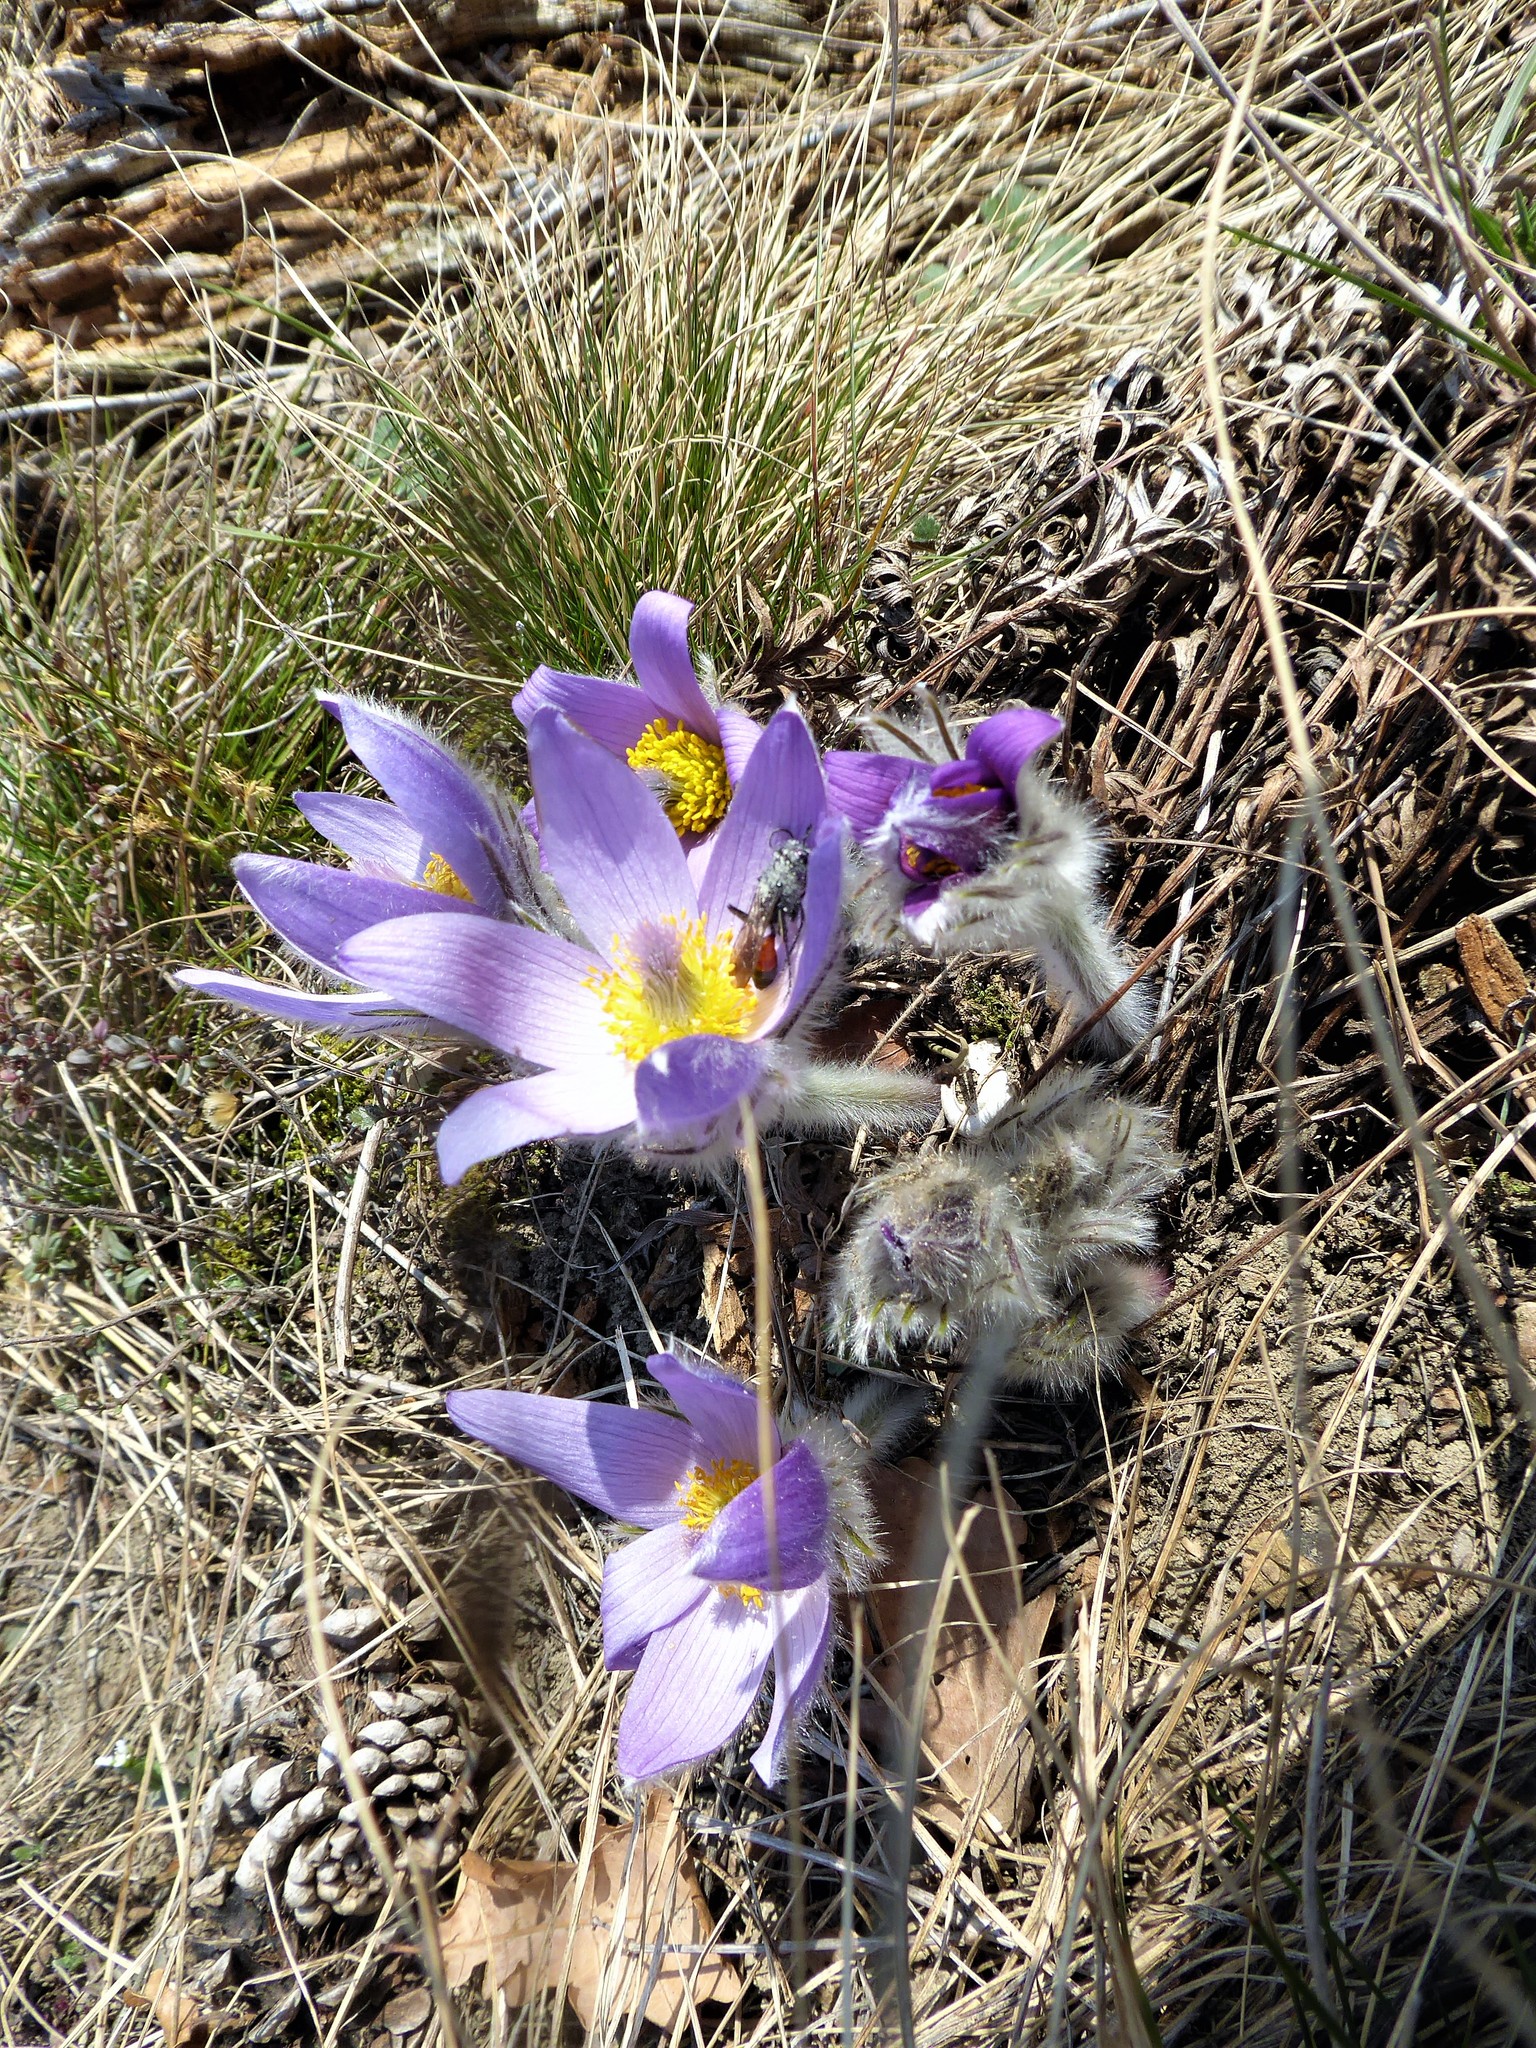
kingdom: Plantae
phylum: Tracheophyta
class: Magnoliopsida
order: Ranunculales
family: Ranunculaceae
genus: Pulsatilla
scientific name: Pulsatilla grandis
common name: Greater pasque flower
